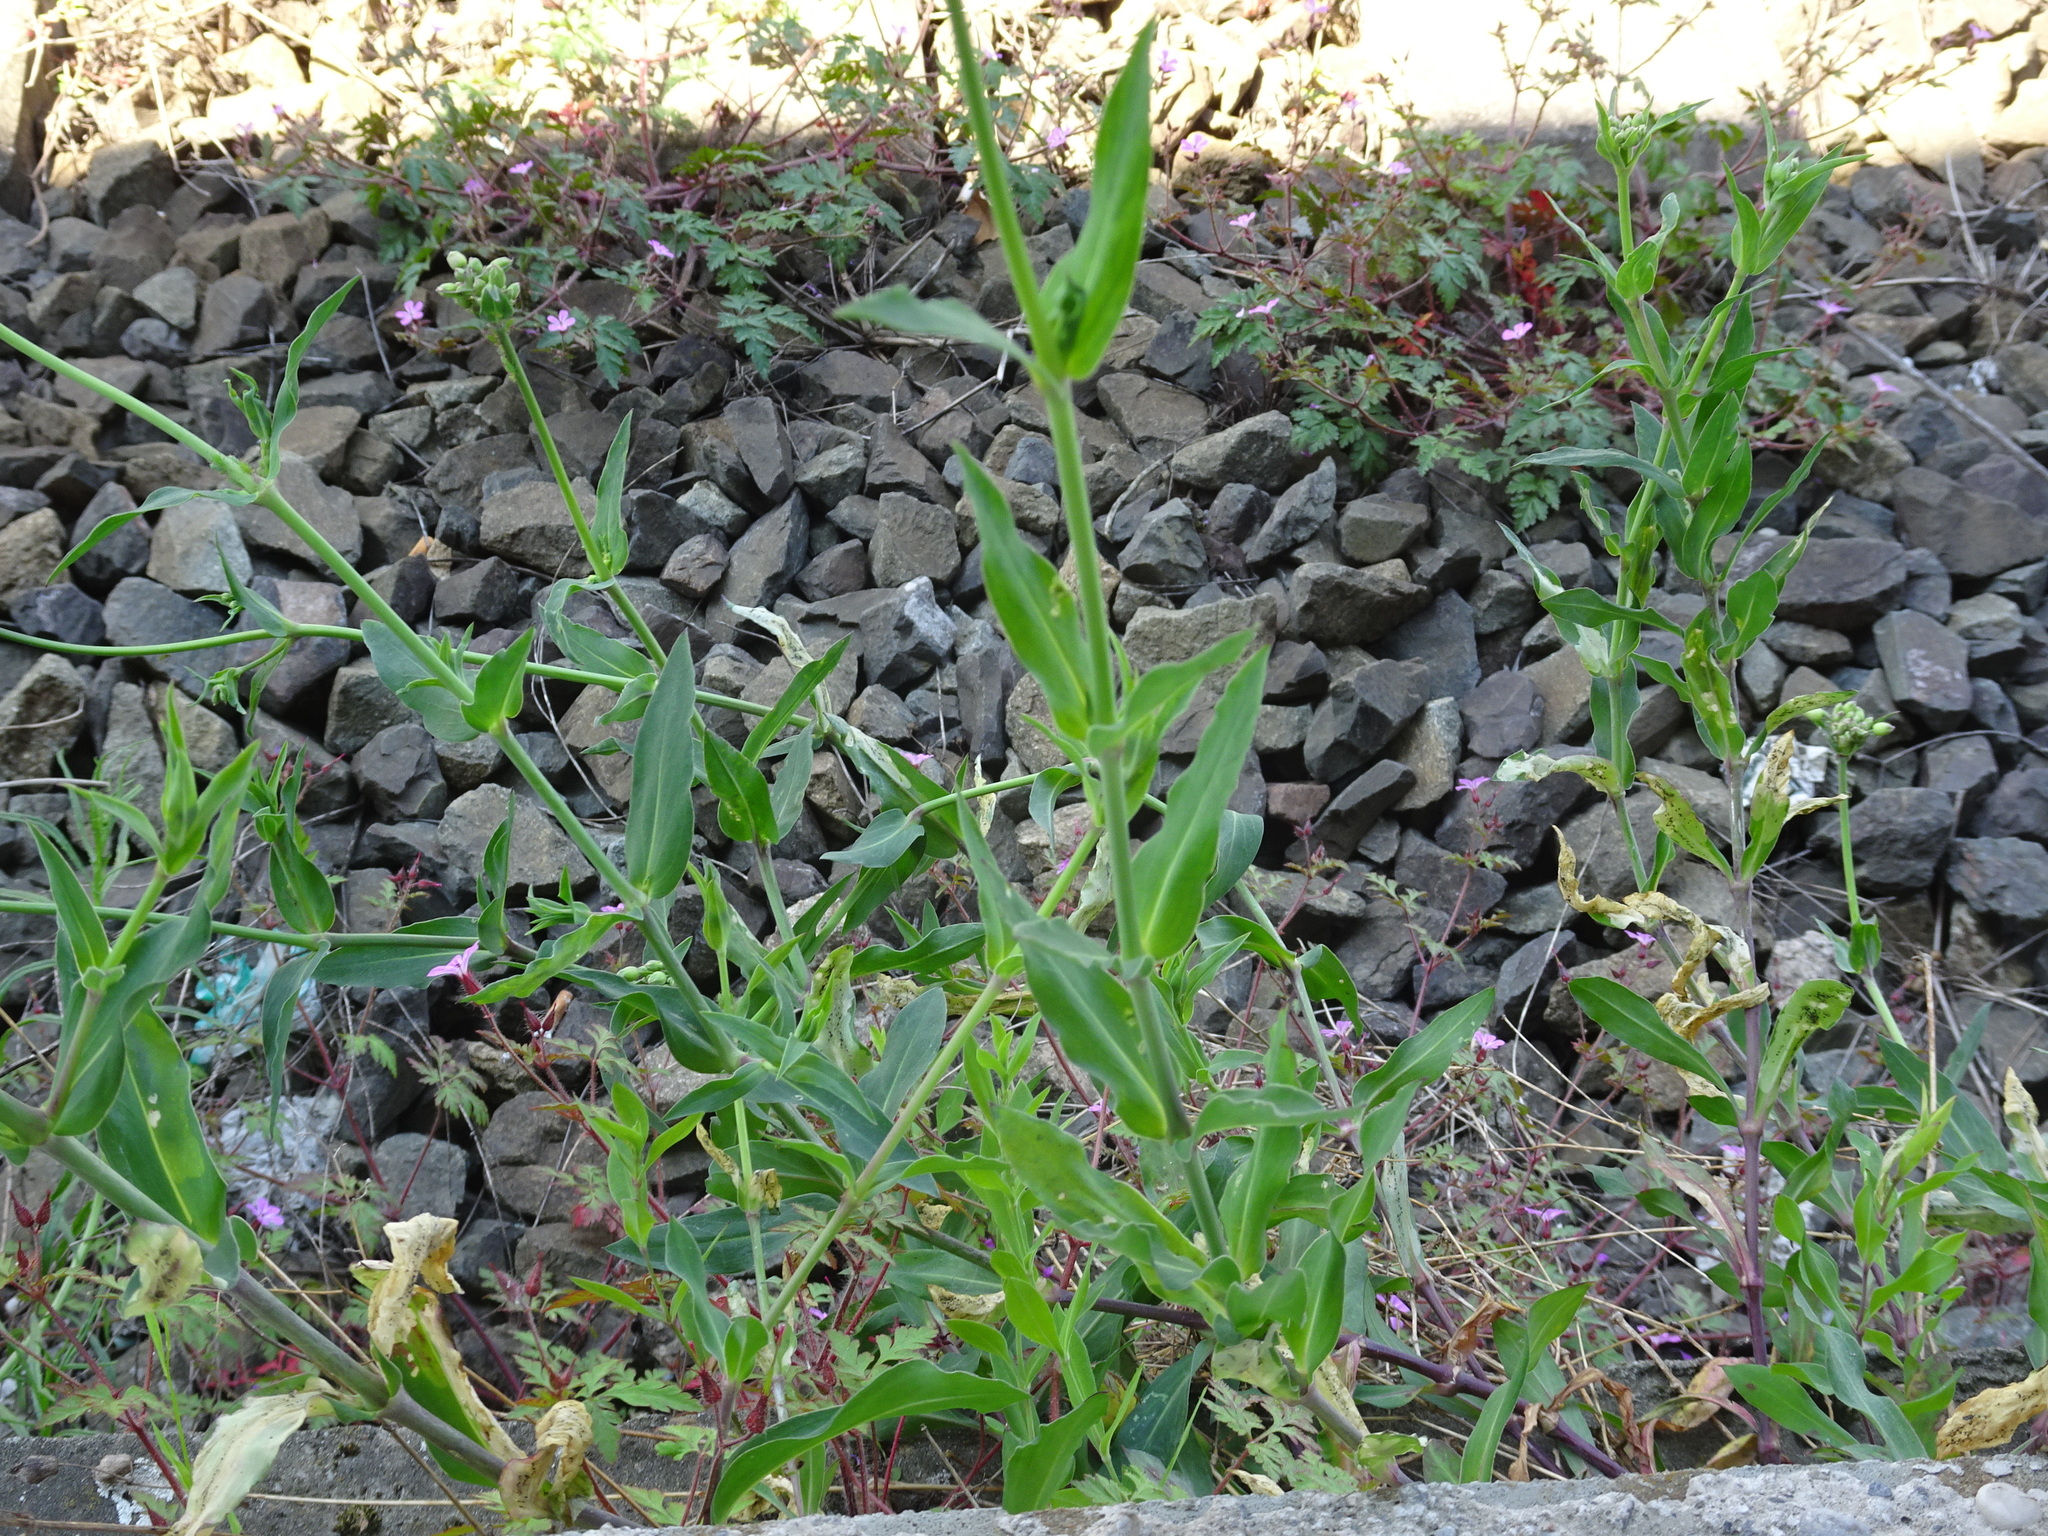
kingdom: Plantae
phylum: Tracheophyta
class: Magnoliopsida
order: Caryophyllales
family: Caryophyllaceae
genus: Silene
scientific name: Silene vulgaris
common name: Bladder campion
